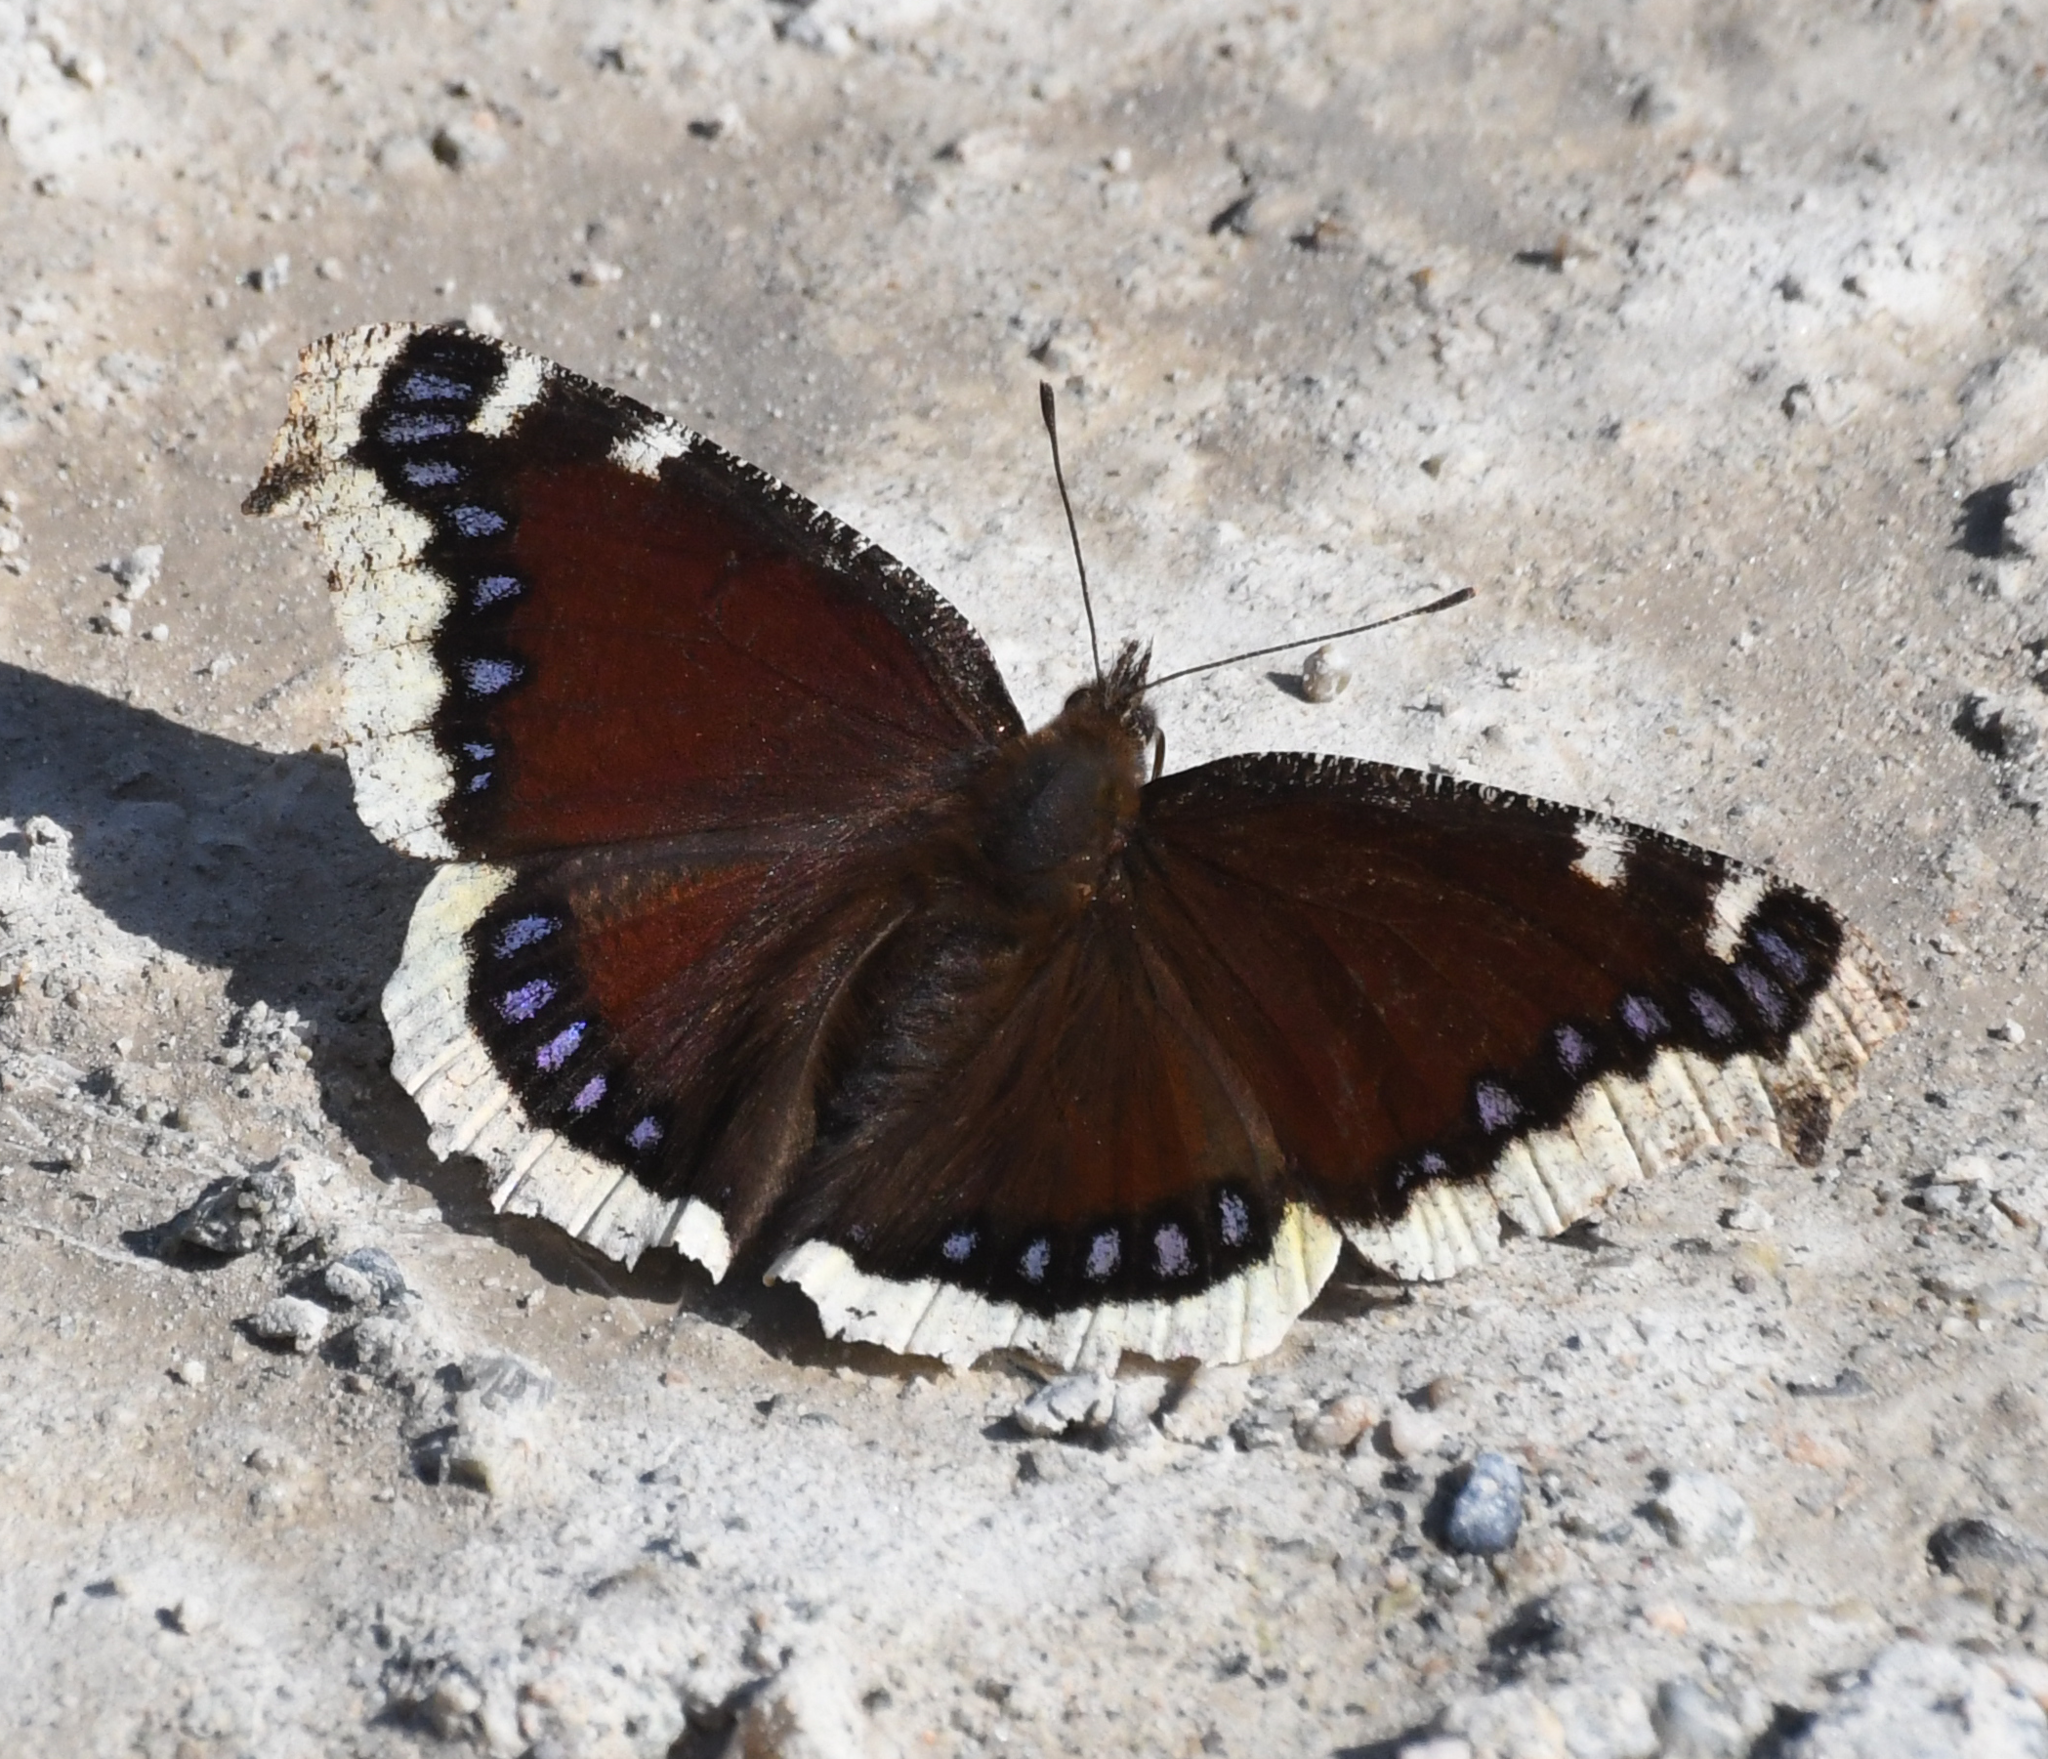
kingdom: Animalia
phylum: Arthropoda
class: Insecta
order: Lepidoptera
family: Nymphalidae
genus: Nymphalis
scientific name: Nymphalis antiopa
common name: Camberwell beauty
